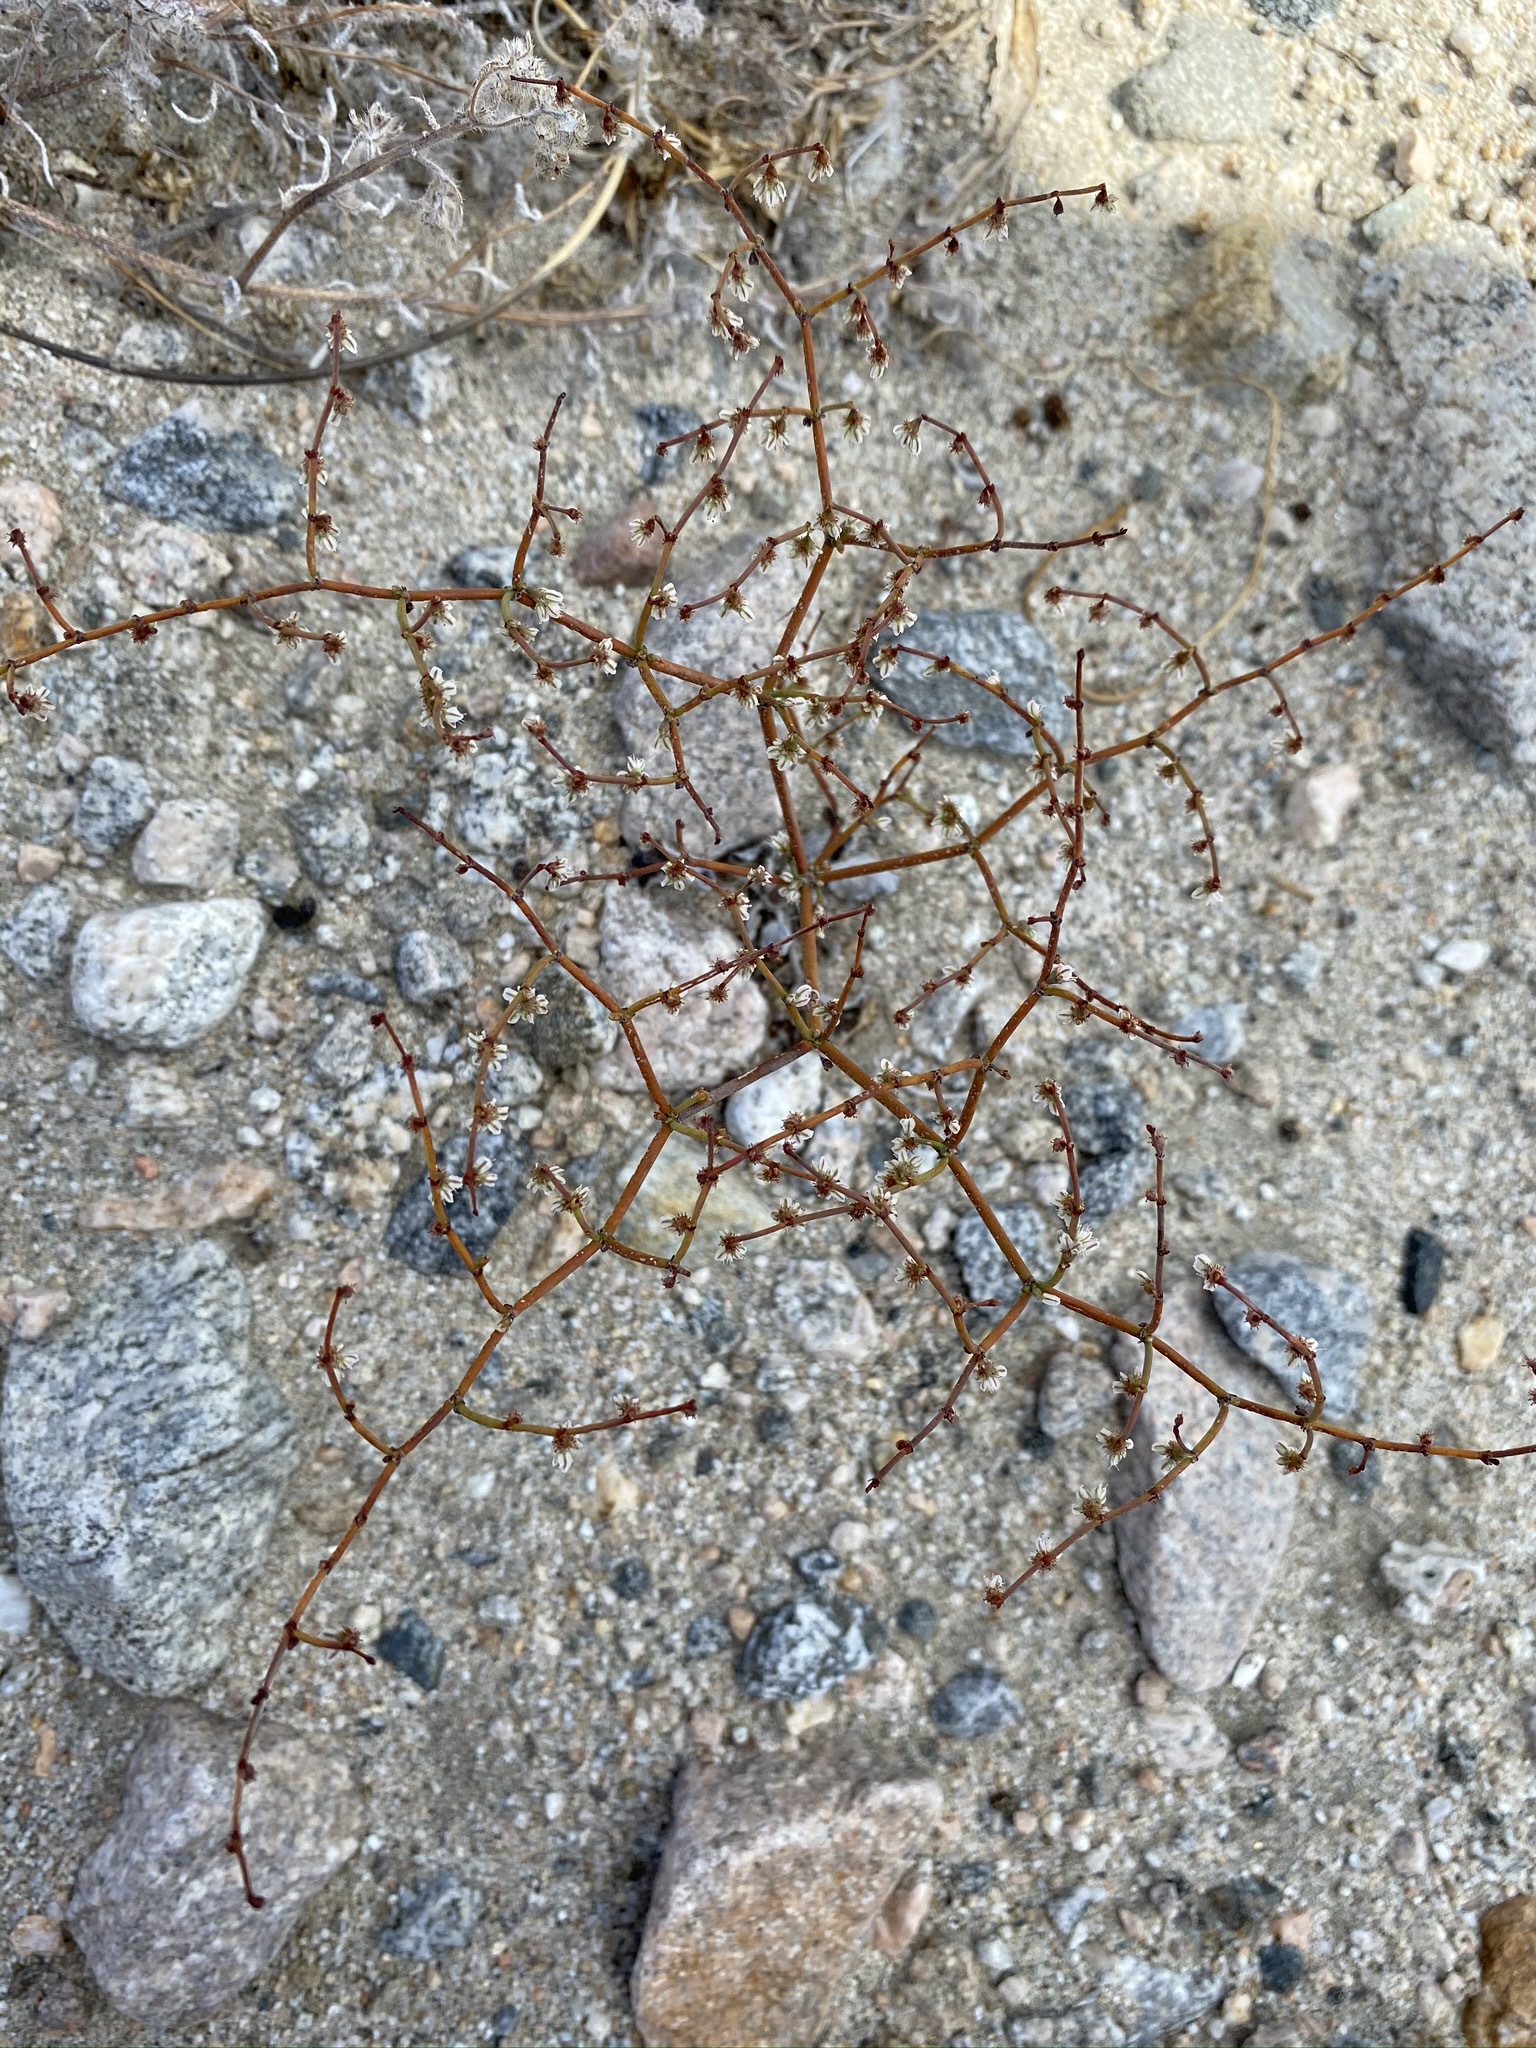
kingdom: Plantae
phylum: Tracheophyta
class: Magnoliopsida
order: Caryophyllales
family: Polygonaceae
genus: Eriogonum
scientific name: Eriogonum deflexum
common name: Skeleton-weed
